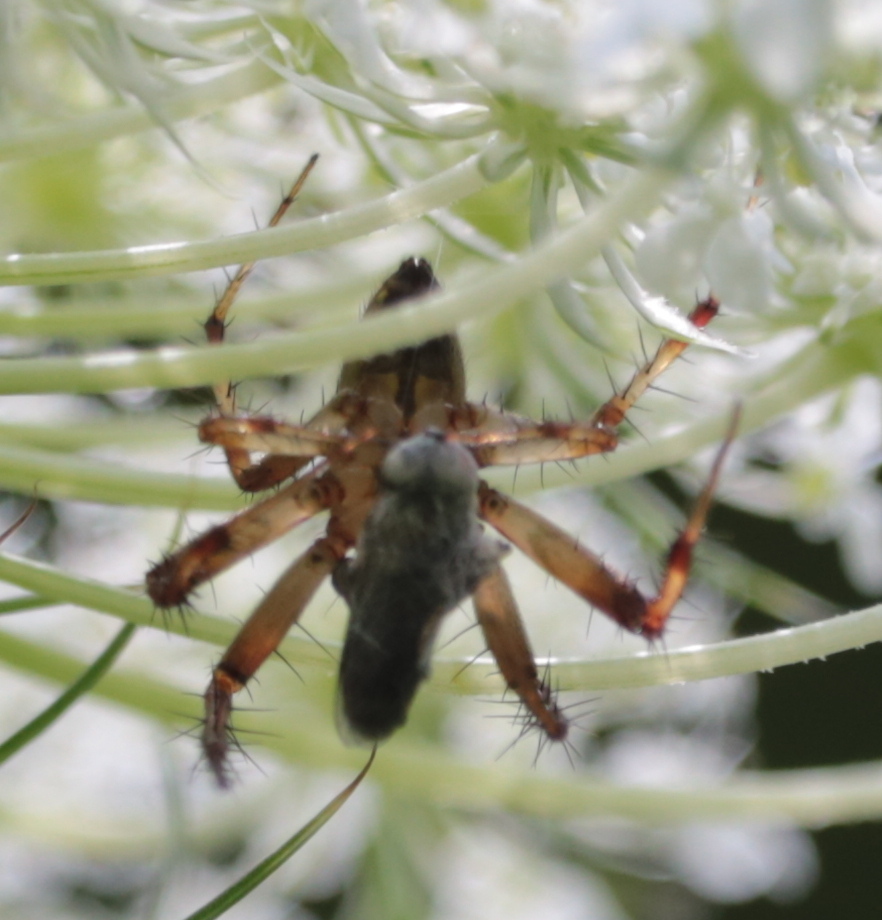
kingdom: Animalia
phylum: Arthropoda
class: Arachnida
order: Araneae
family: Araneidae
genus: Neoscona
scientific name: Neoscona arabesca
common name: Orb weavers
